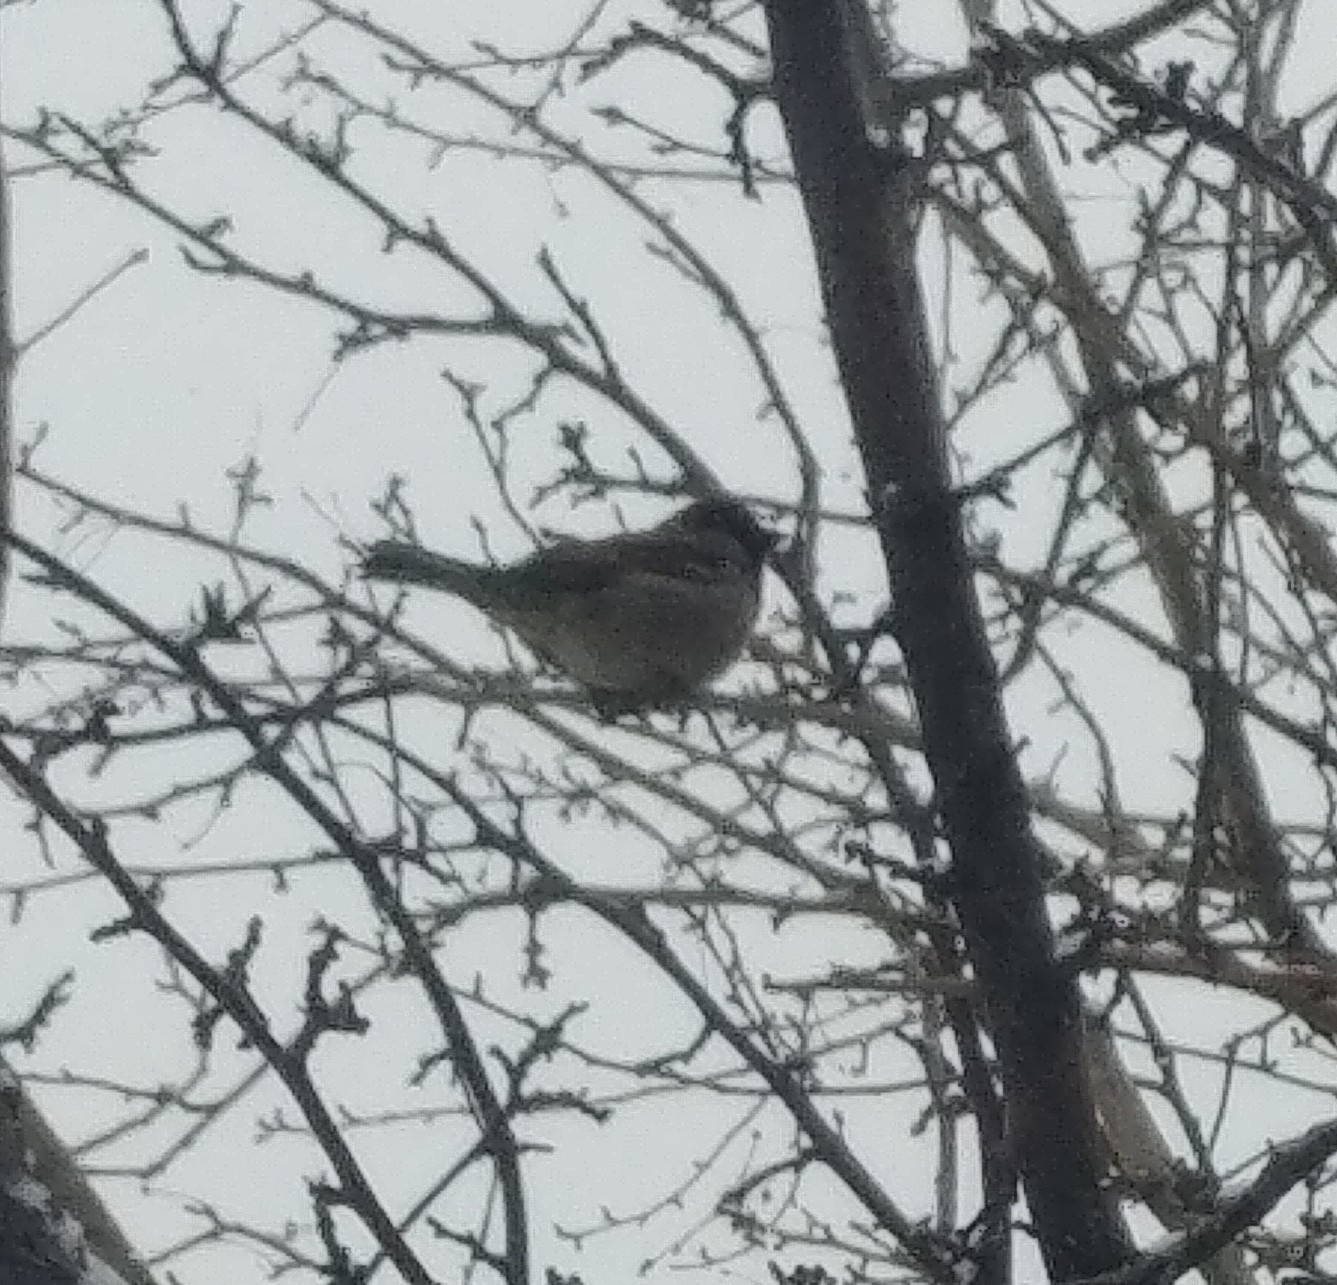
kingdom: Animalia
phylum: Chordata
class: Aves
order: Passeriformes
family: Passeridae
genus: Passer
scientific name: Passer domesticus
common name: House sparrow
